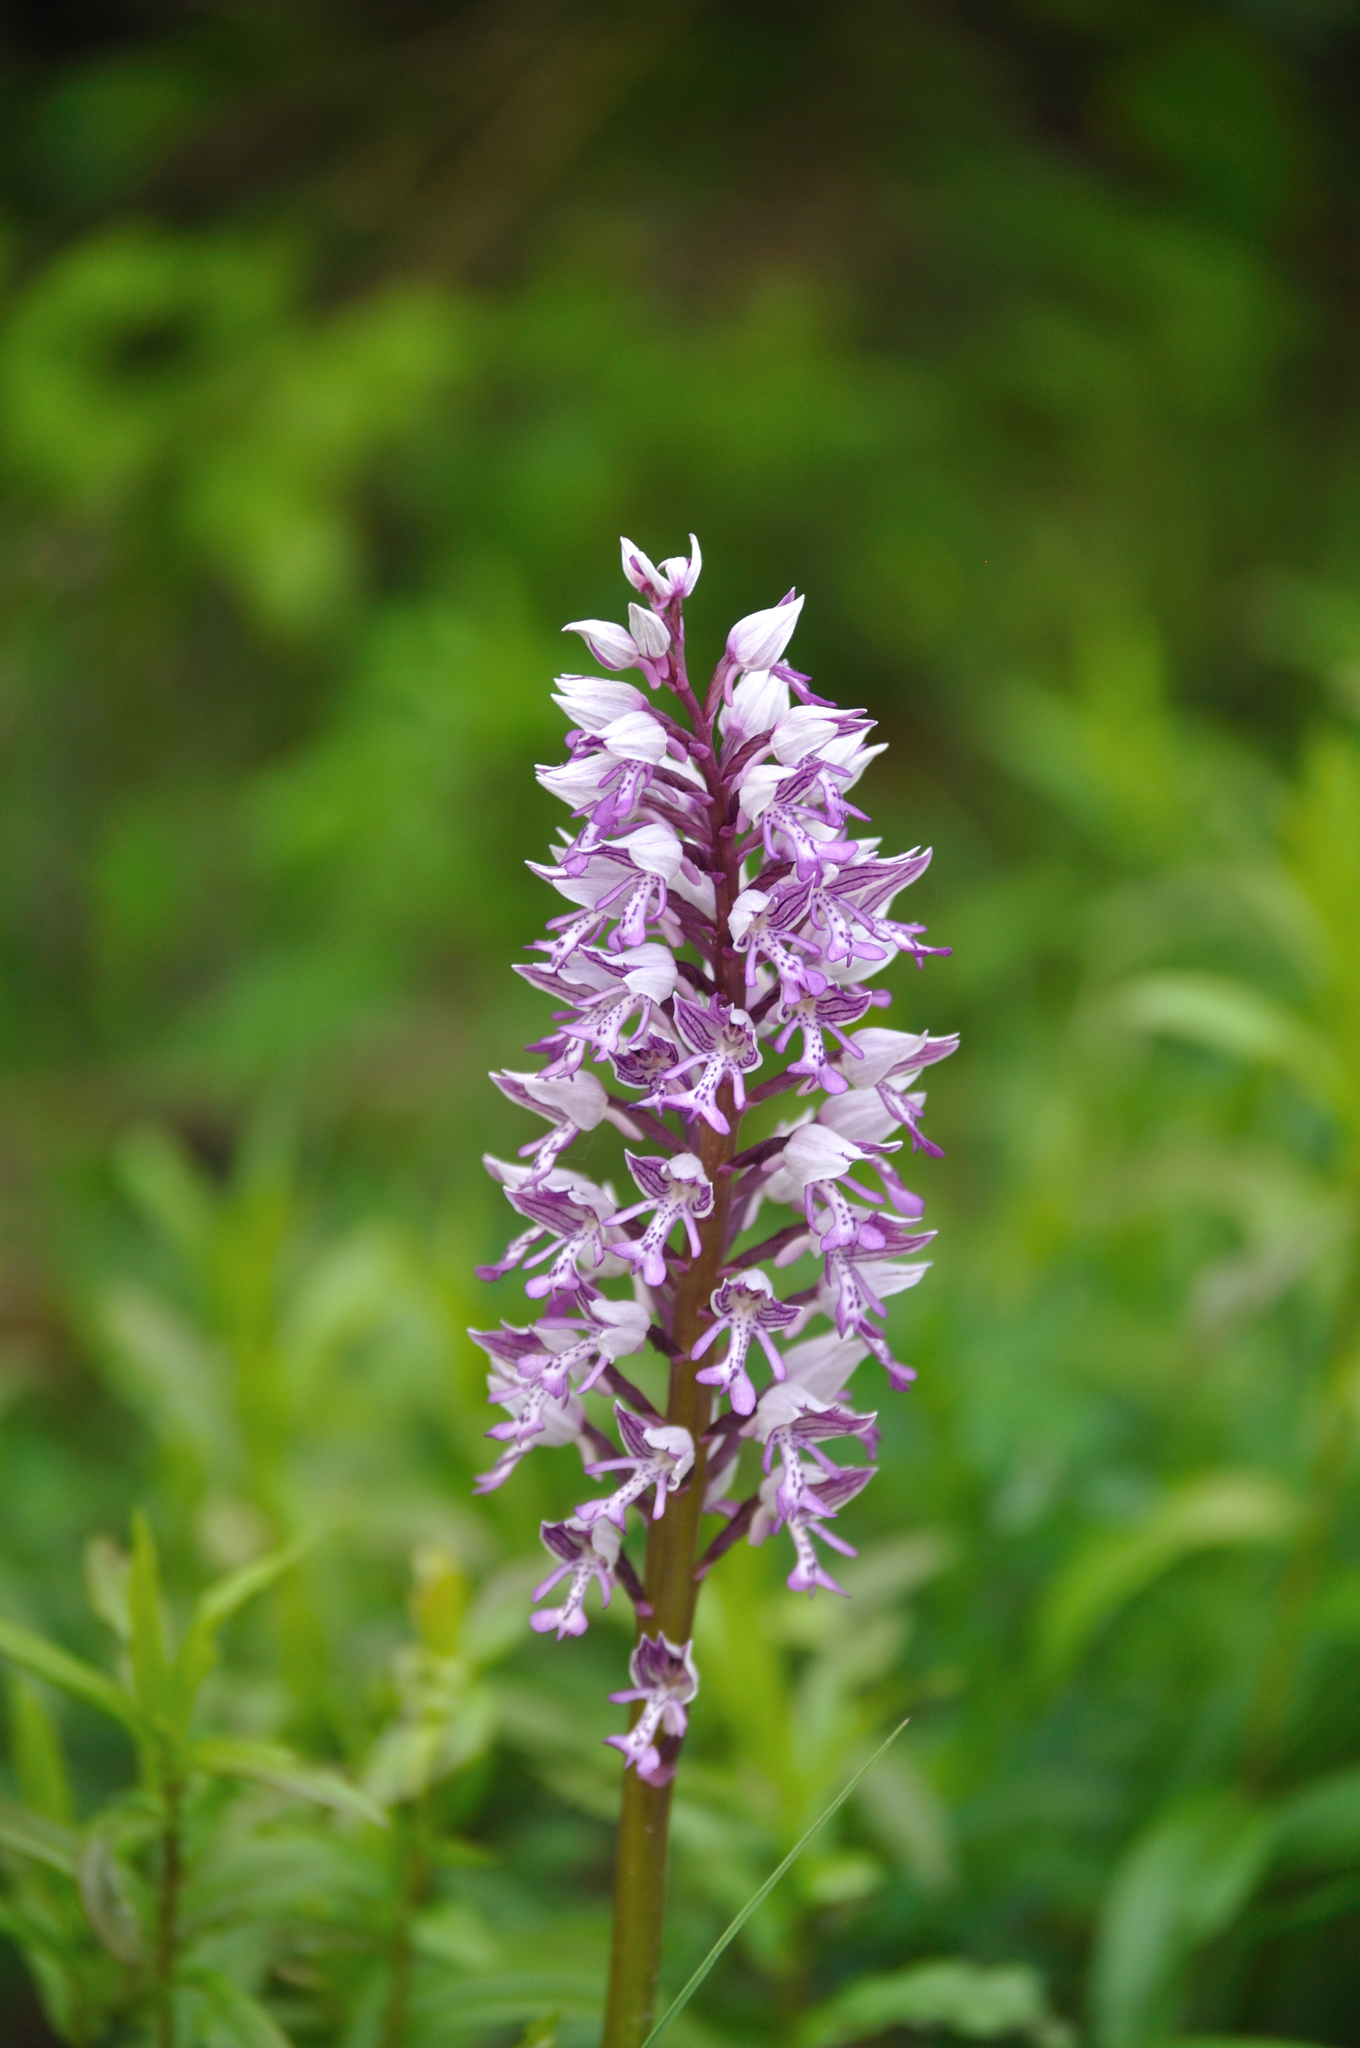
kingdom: Plantae
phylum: Tracheophyta
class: Liliopsida
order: Asparagales
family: Orchidaceae
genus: Orchis
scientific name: Orchis militaris
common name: Military orchid
